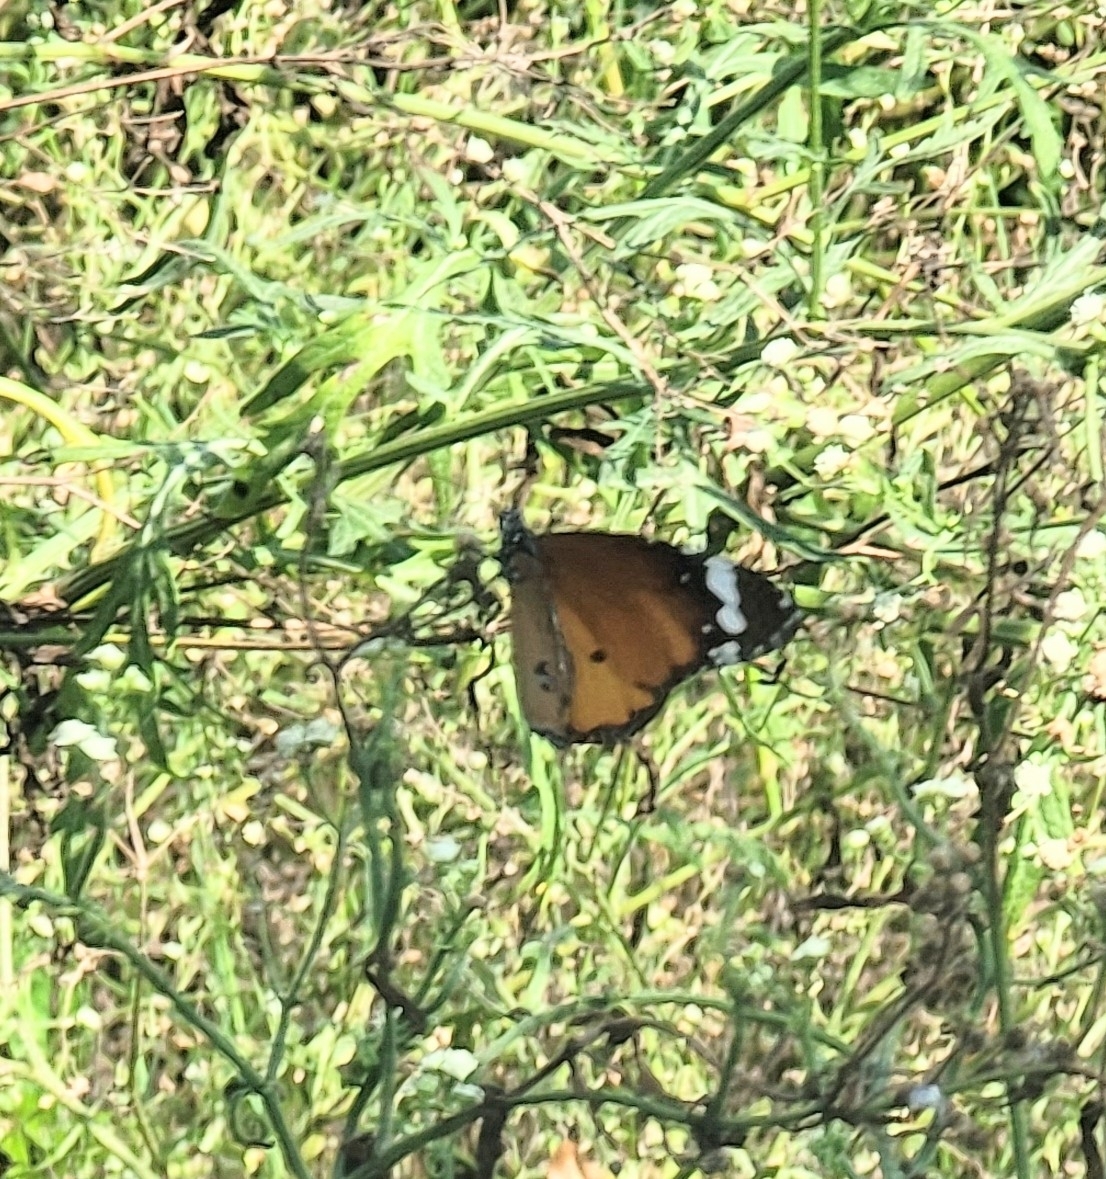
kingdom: Animalia
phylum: Arthropoda
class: Insecta
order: Lepidoptera
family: Nymphalidae
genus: Danaus
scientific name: Danaus chrysippus
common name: Plain tiger
